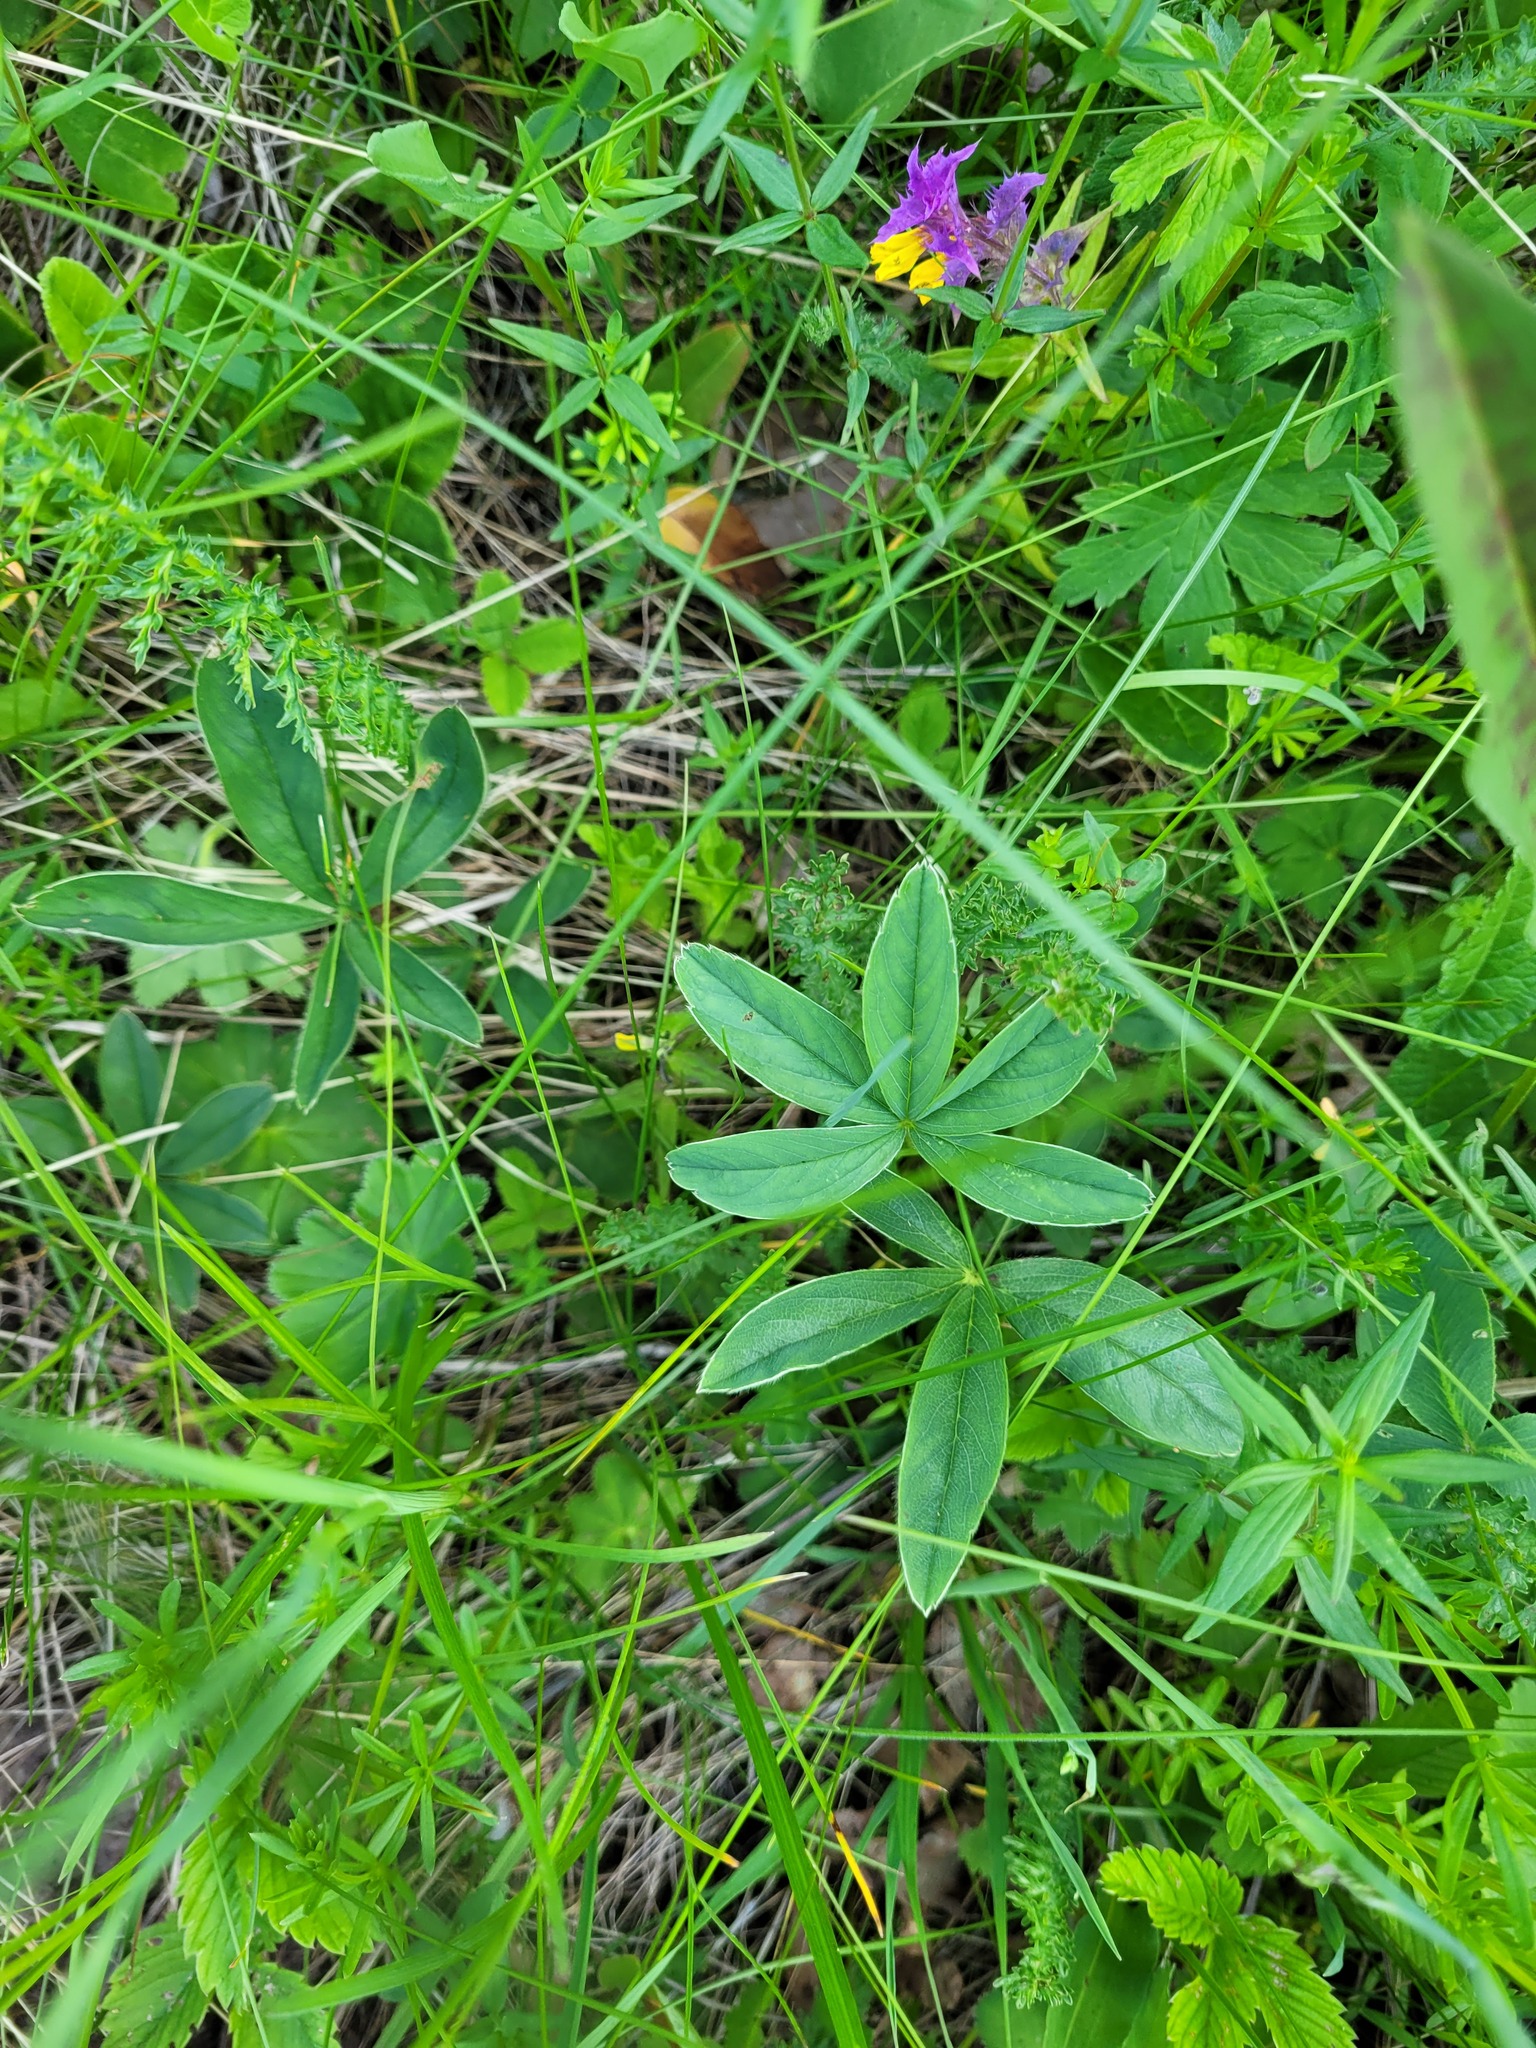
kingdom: Plantae
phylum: Tracheophyta
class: Magnoliopsida
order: Rosales
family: Rosaceae
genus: Potentilla
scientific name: Potentilla alba
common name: White cinquefoil
